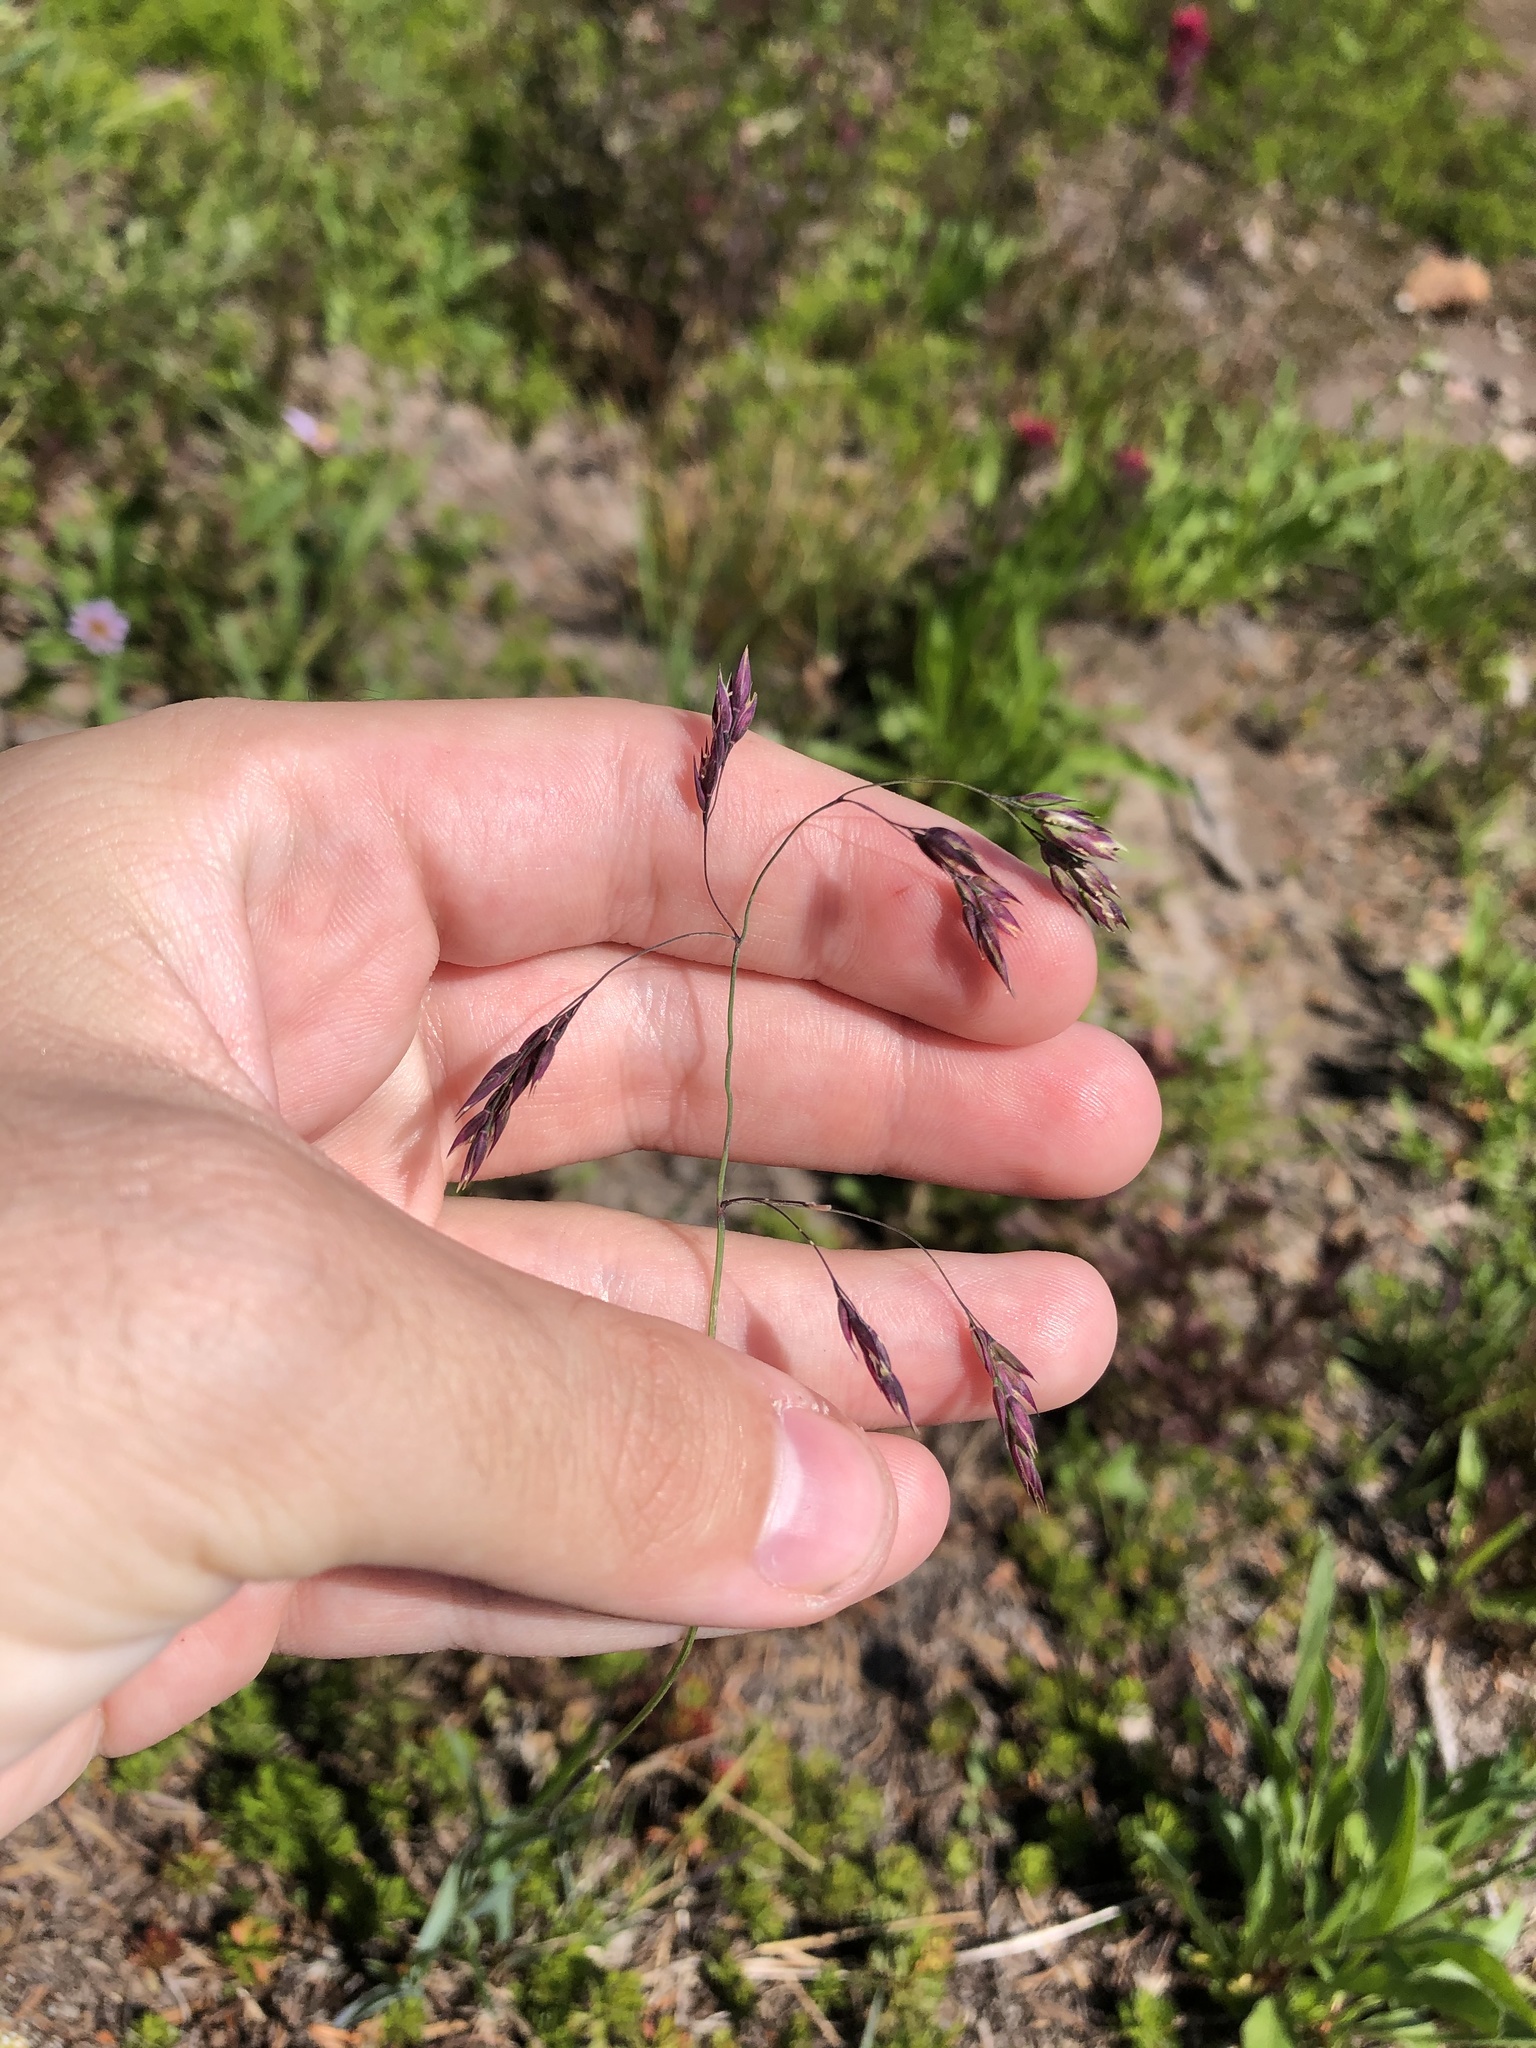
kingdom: Plantae
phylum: Tracheophyta
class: Liliopsida
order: Poales
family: Poaceae
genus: Vahlodea
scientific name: Vahlodea atropurpurea
